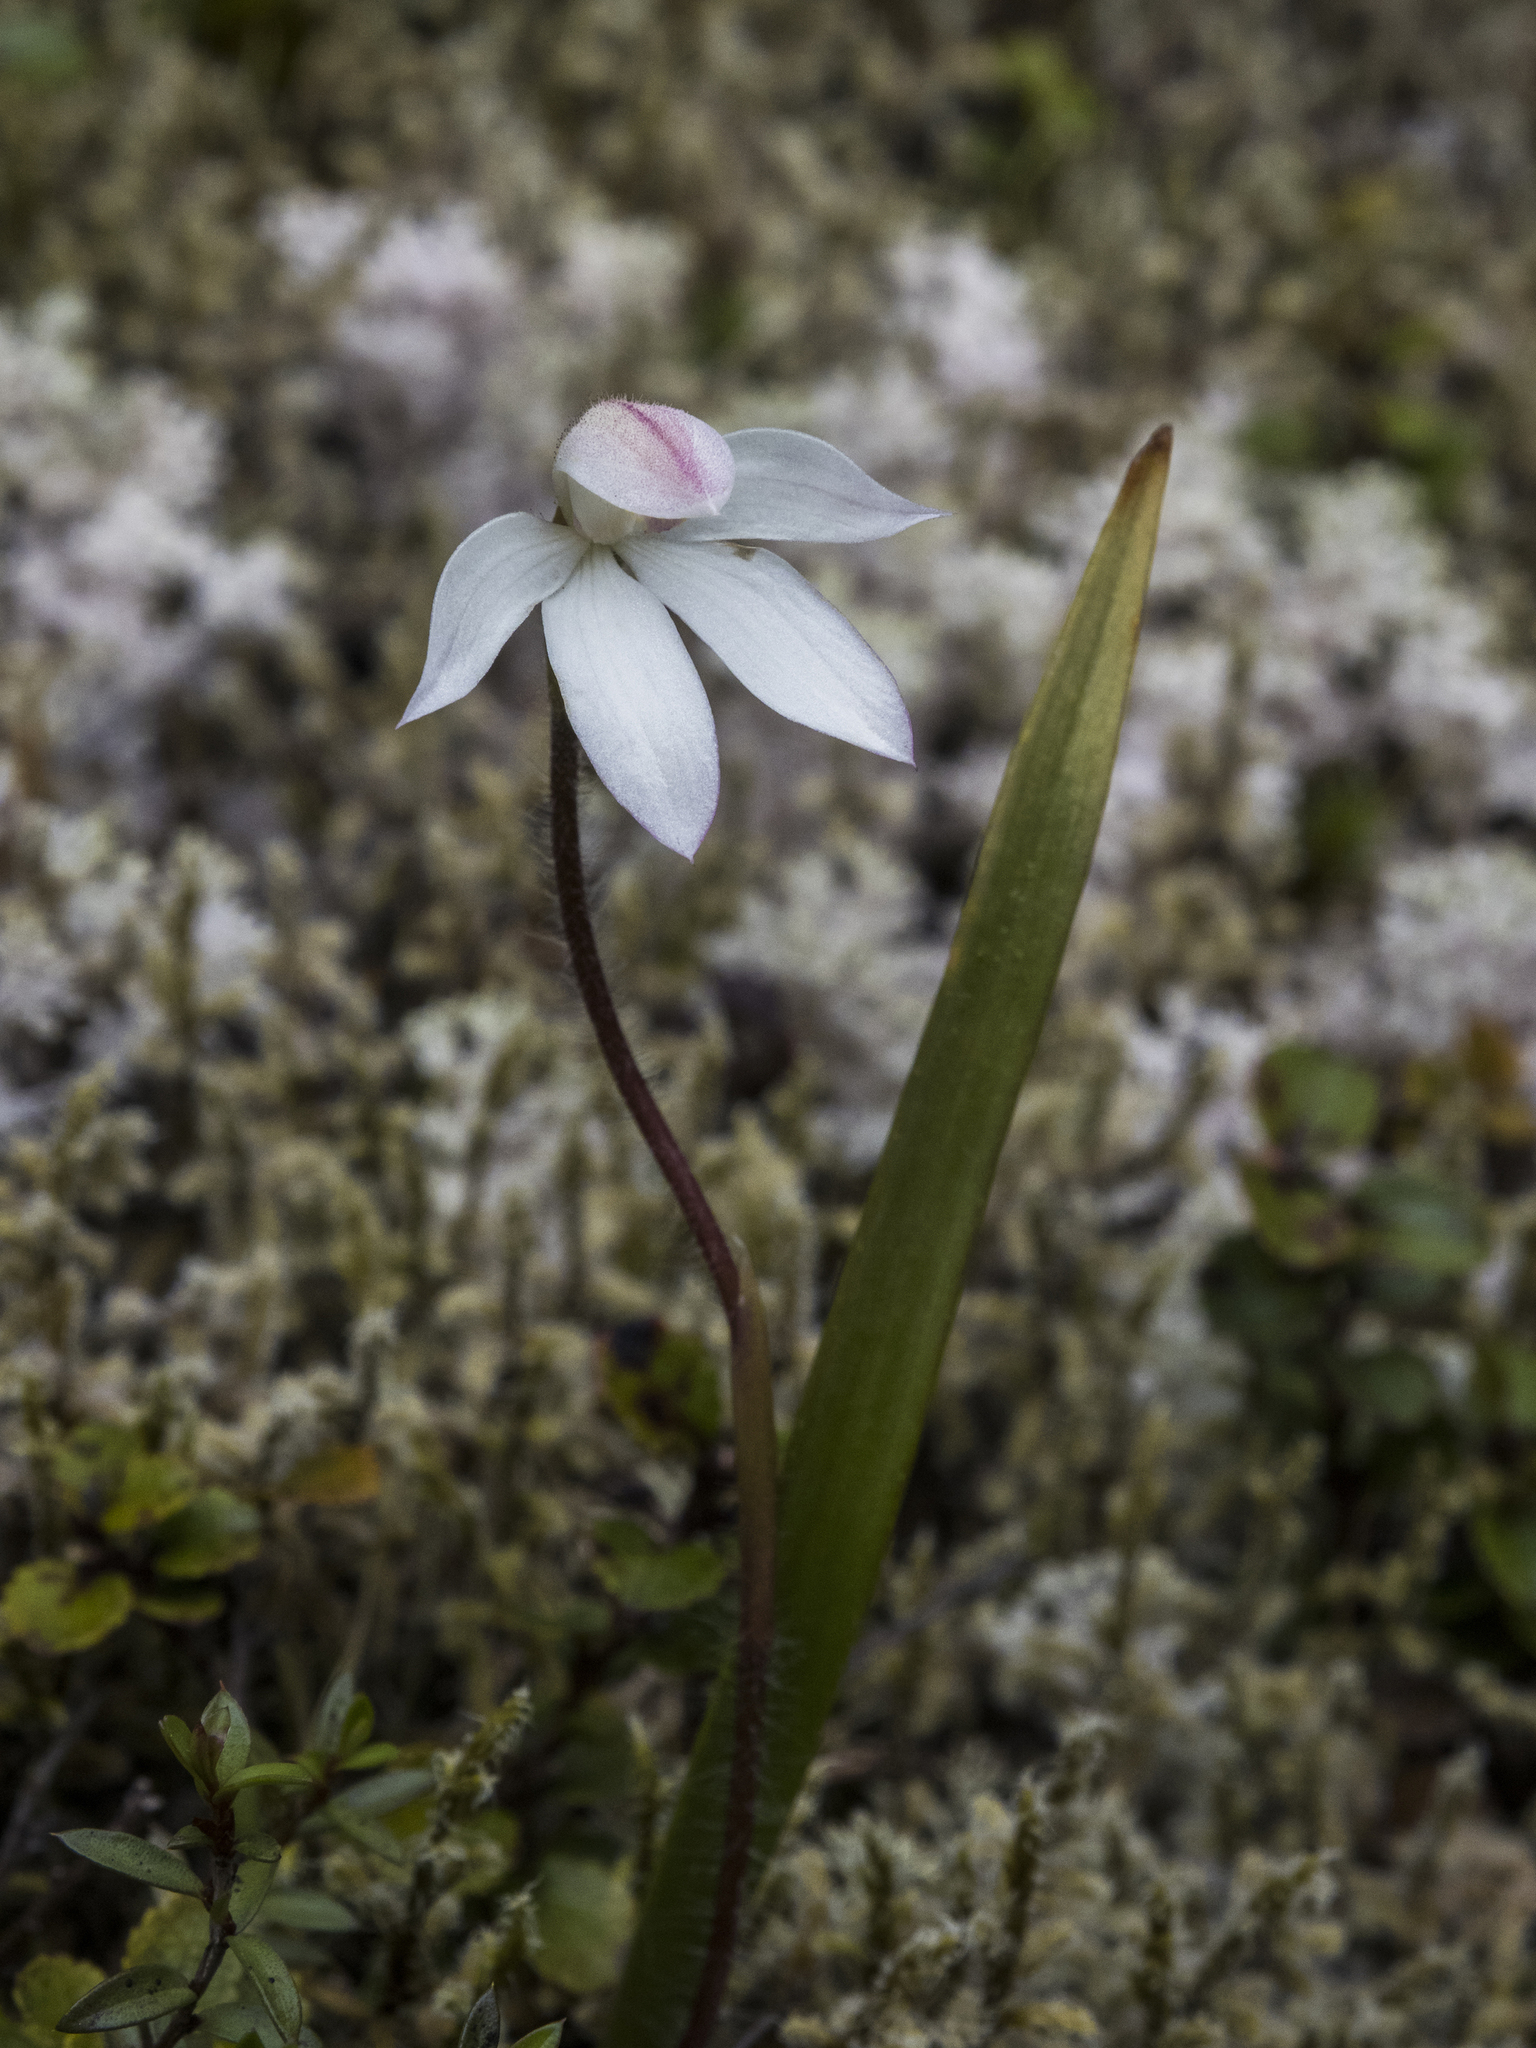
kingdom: Plantae
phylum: Tracheophyta
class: Liliopsida
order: Asparagales
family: Orchidaceae
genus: Caladenia
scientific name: Caladenia lyallii
